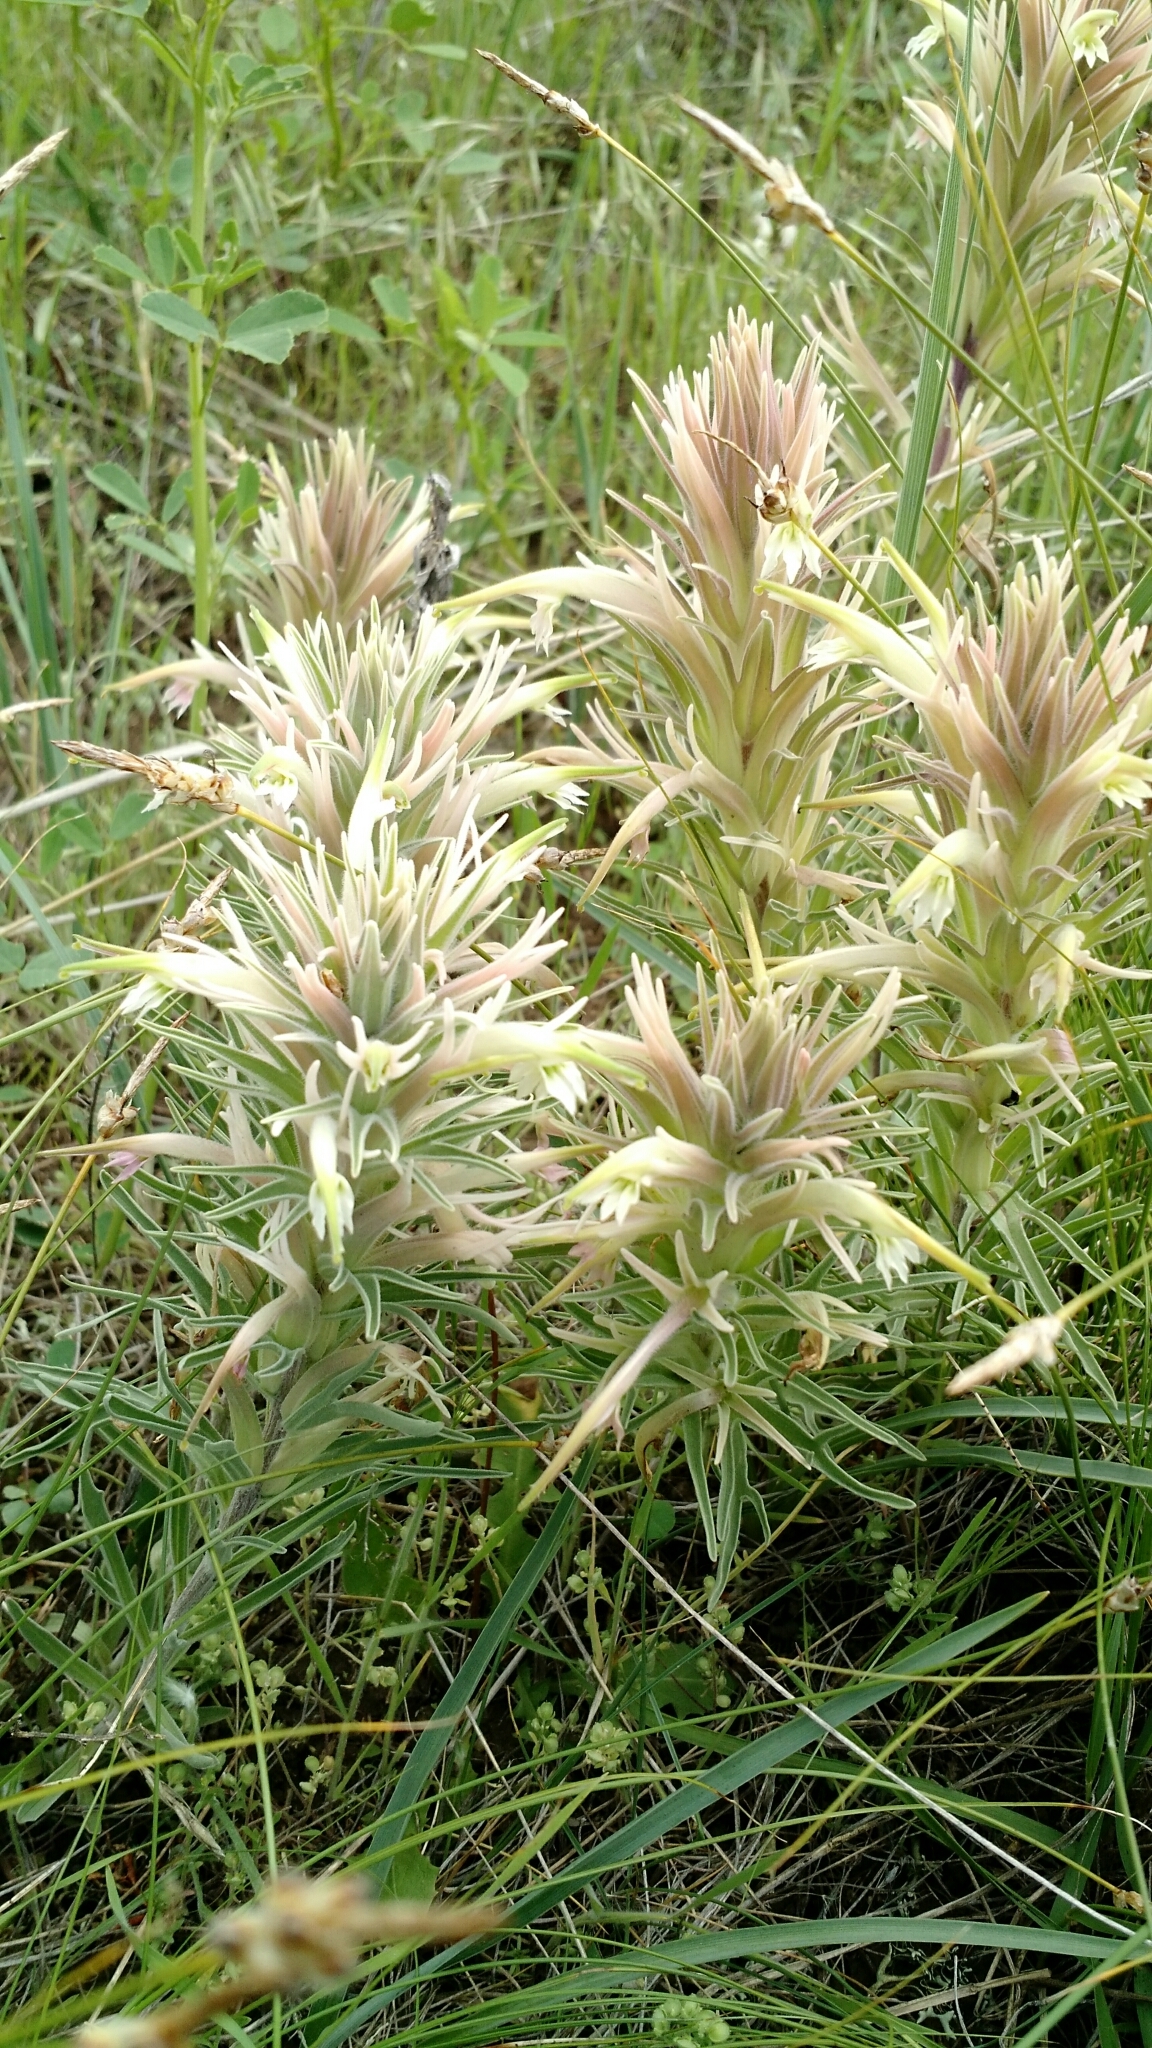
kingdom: Plantae
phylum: Tracheophyta
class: Magnoliopsida
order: Lamiales
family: Orobanchaceae
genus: Castilleja
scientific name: Castilleja sessiliflora
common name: Downy paintbrush
